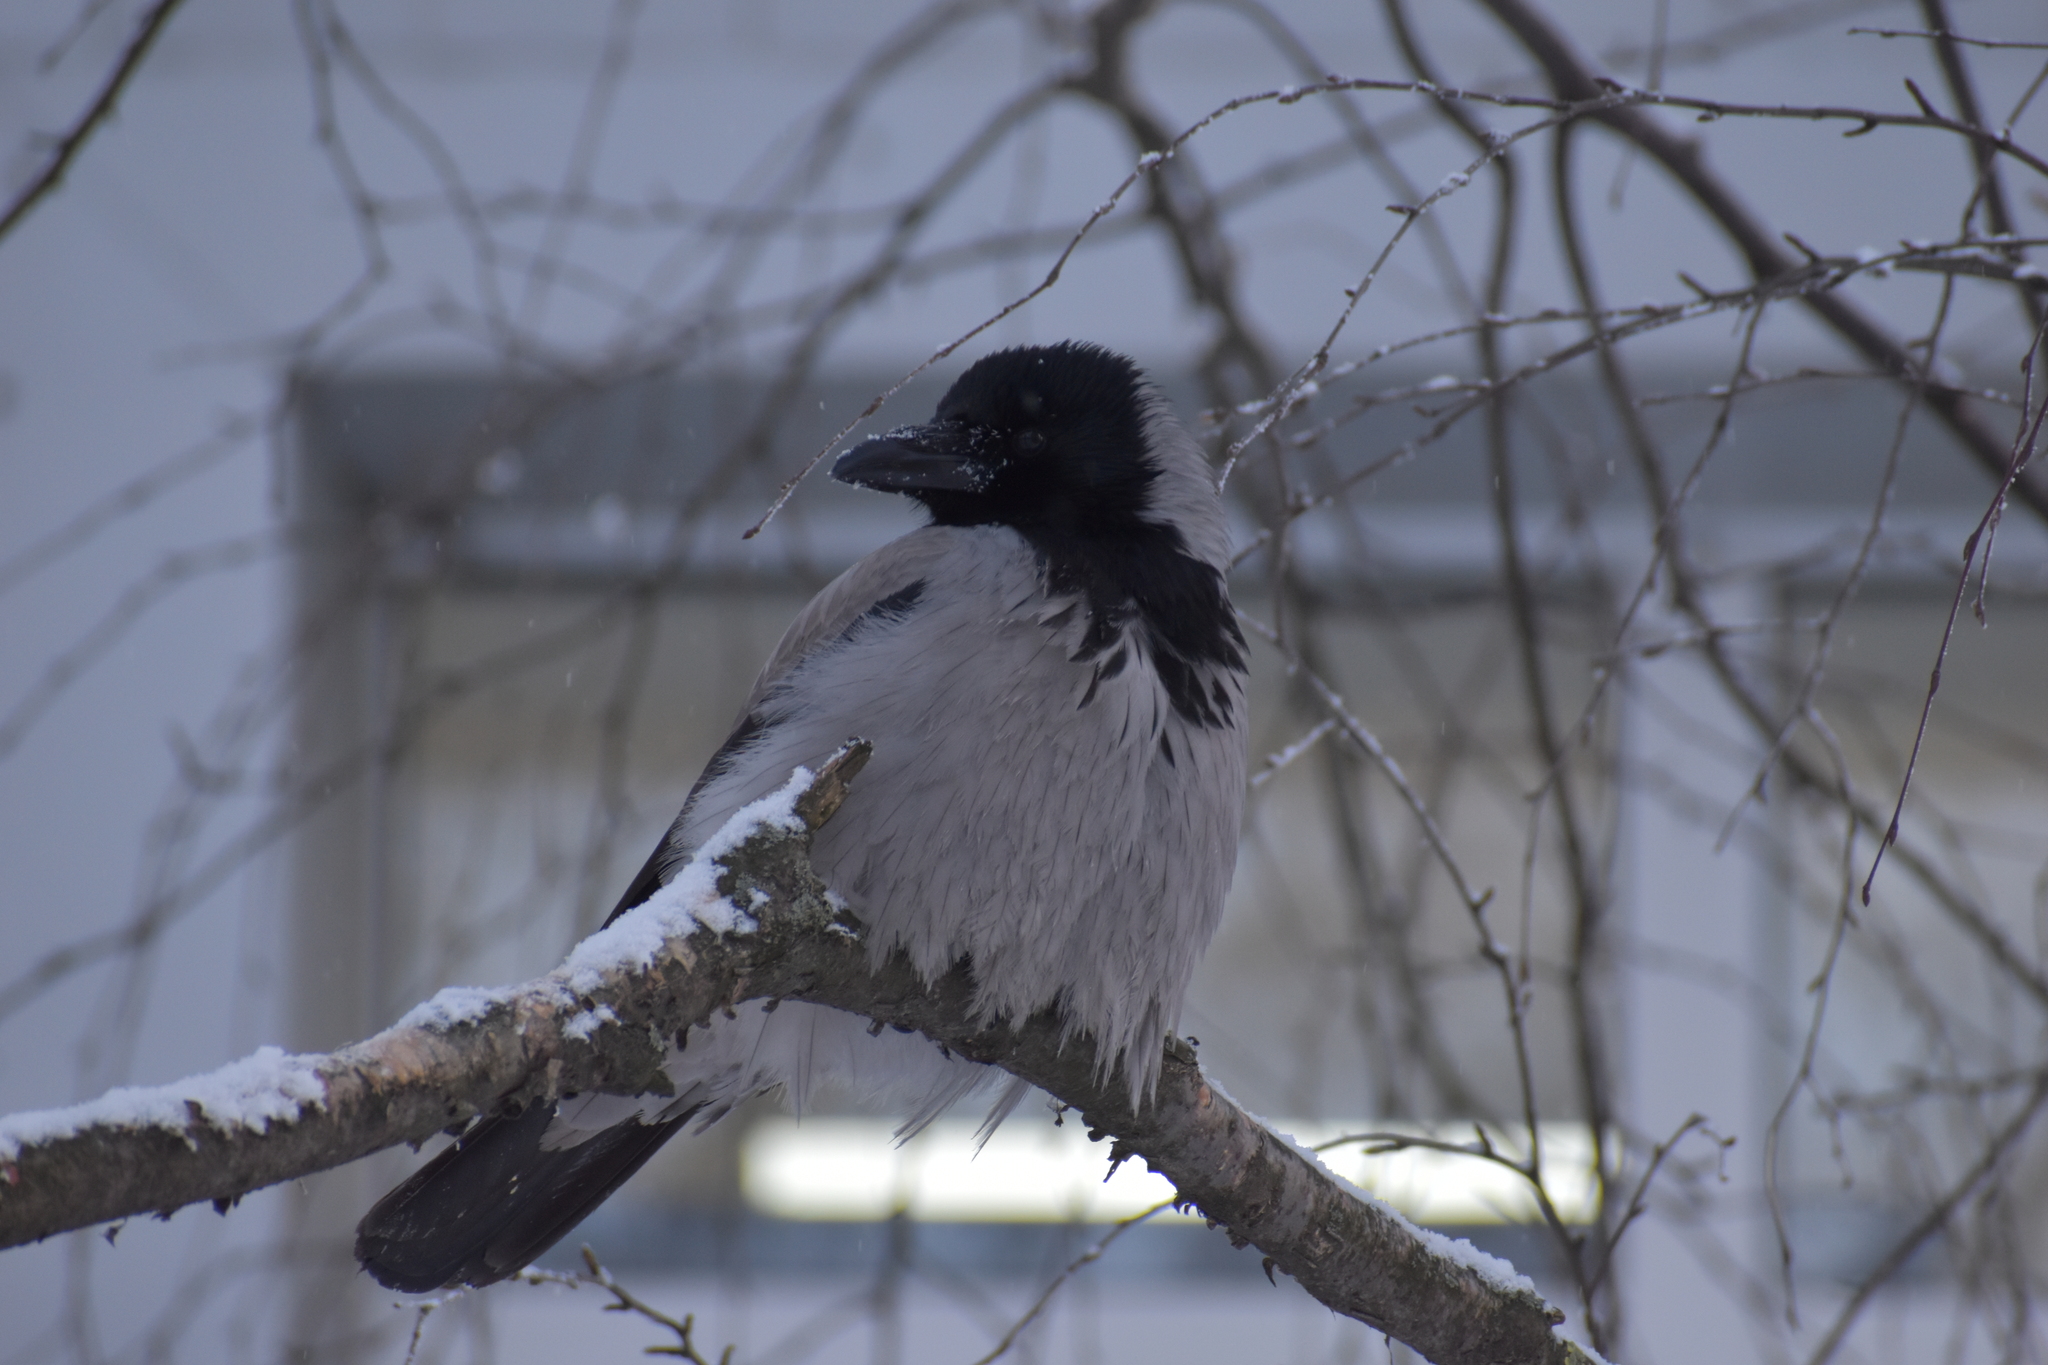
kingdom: Animalia
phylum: Chordata
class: Aves
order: Passeriformes
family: Corvidae
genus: Corvus
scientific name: Corvus cornix
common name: Hooded crow
